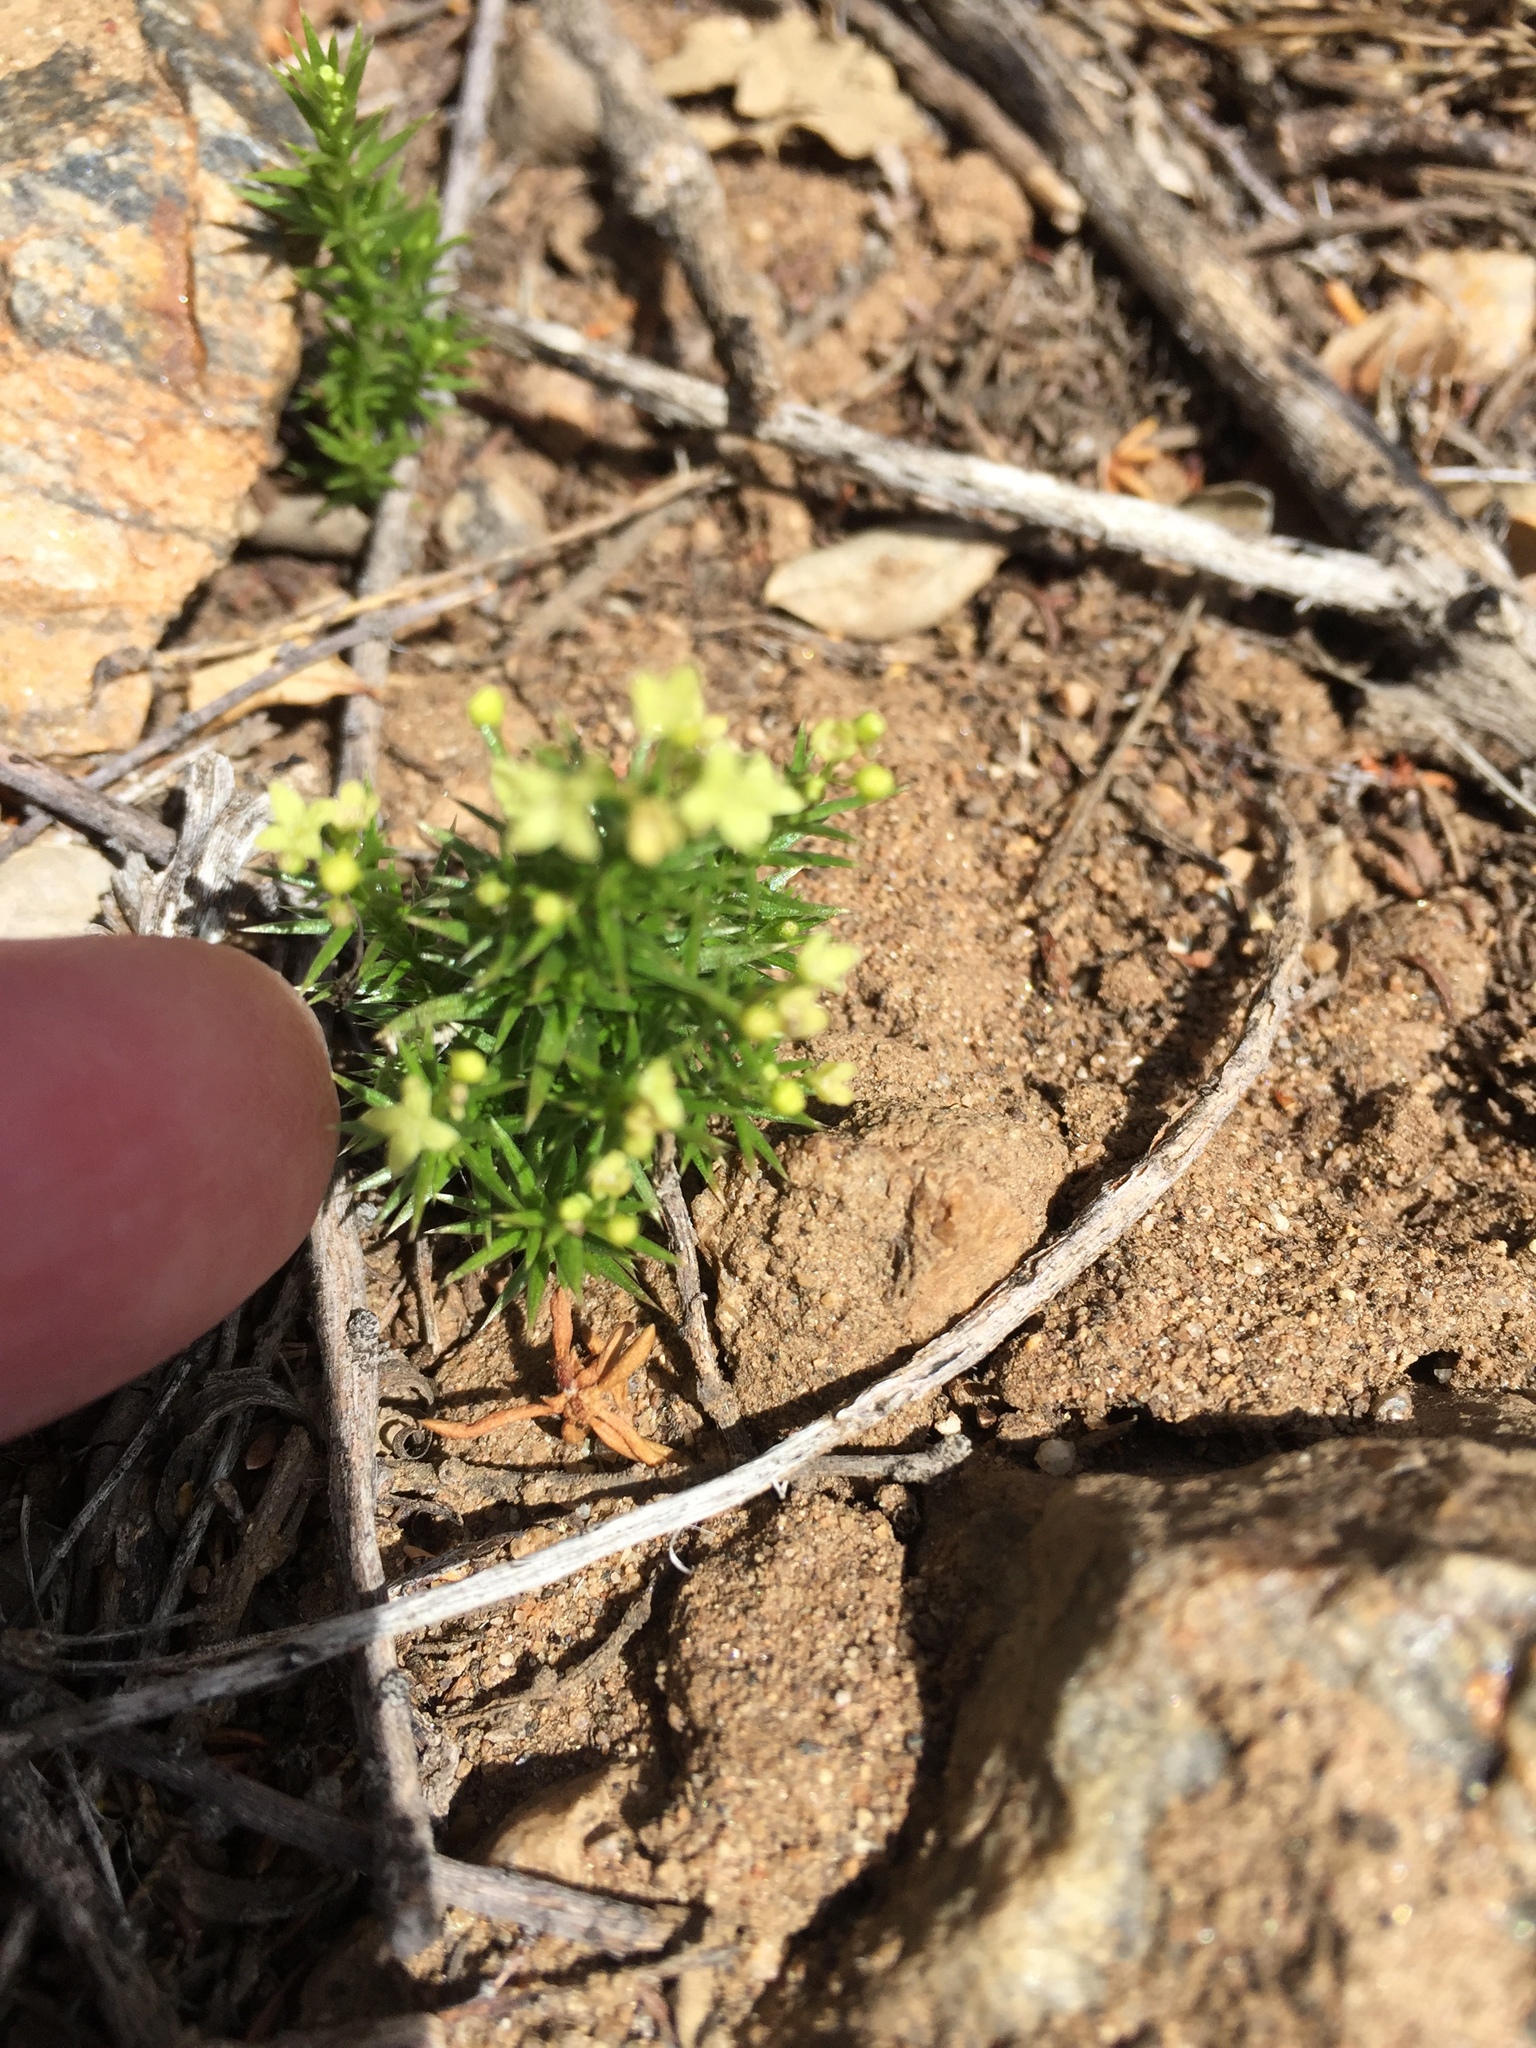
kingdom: Plantae
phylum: Tracheophyta
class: Magnoliopsida
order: Gentianales
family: Rubiaceae
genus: Galium
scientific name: Galium andrewsii
